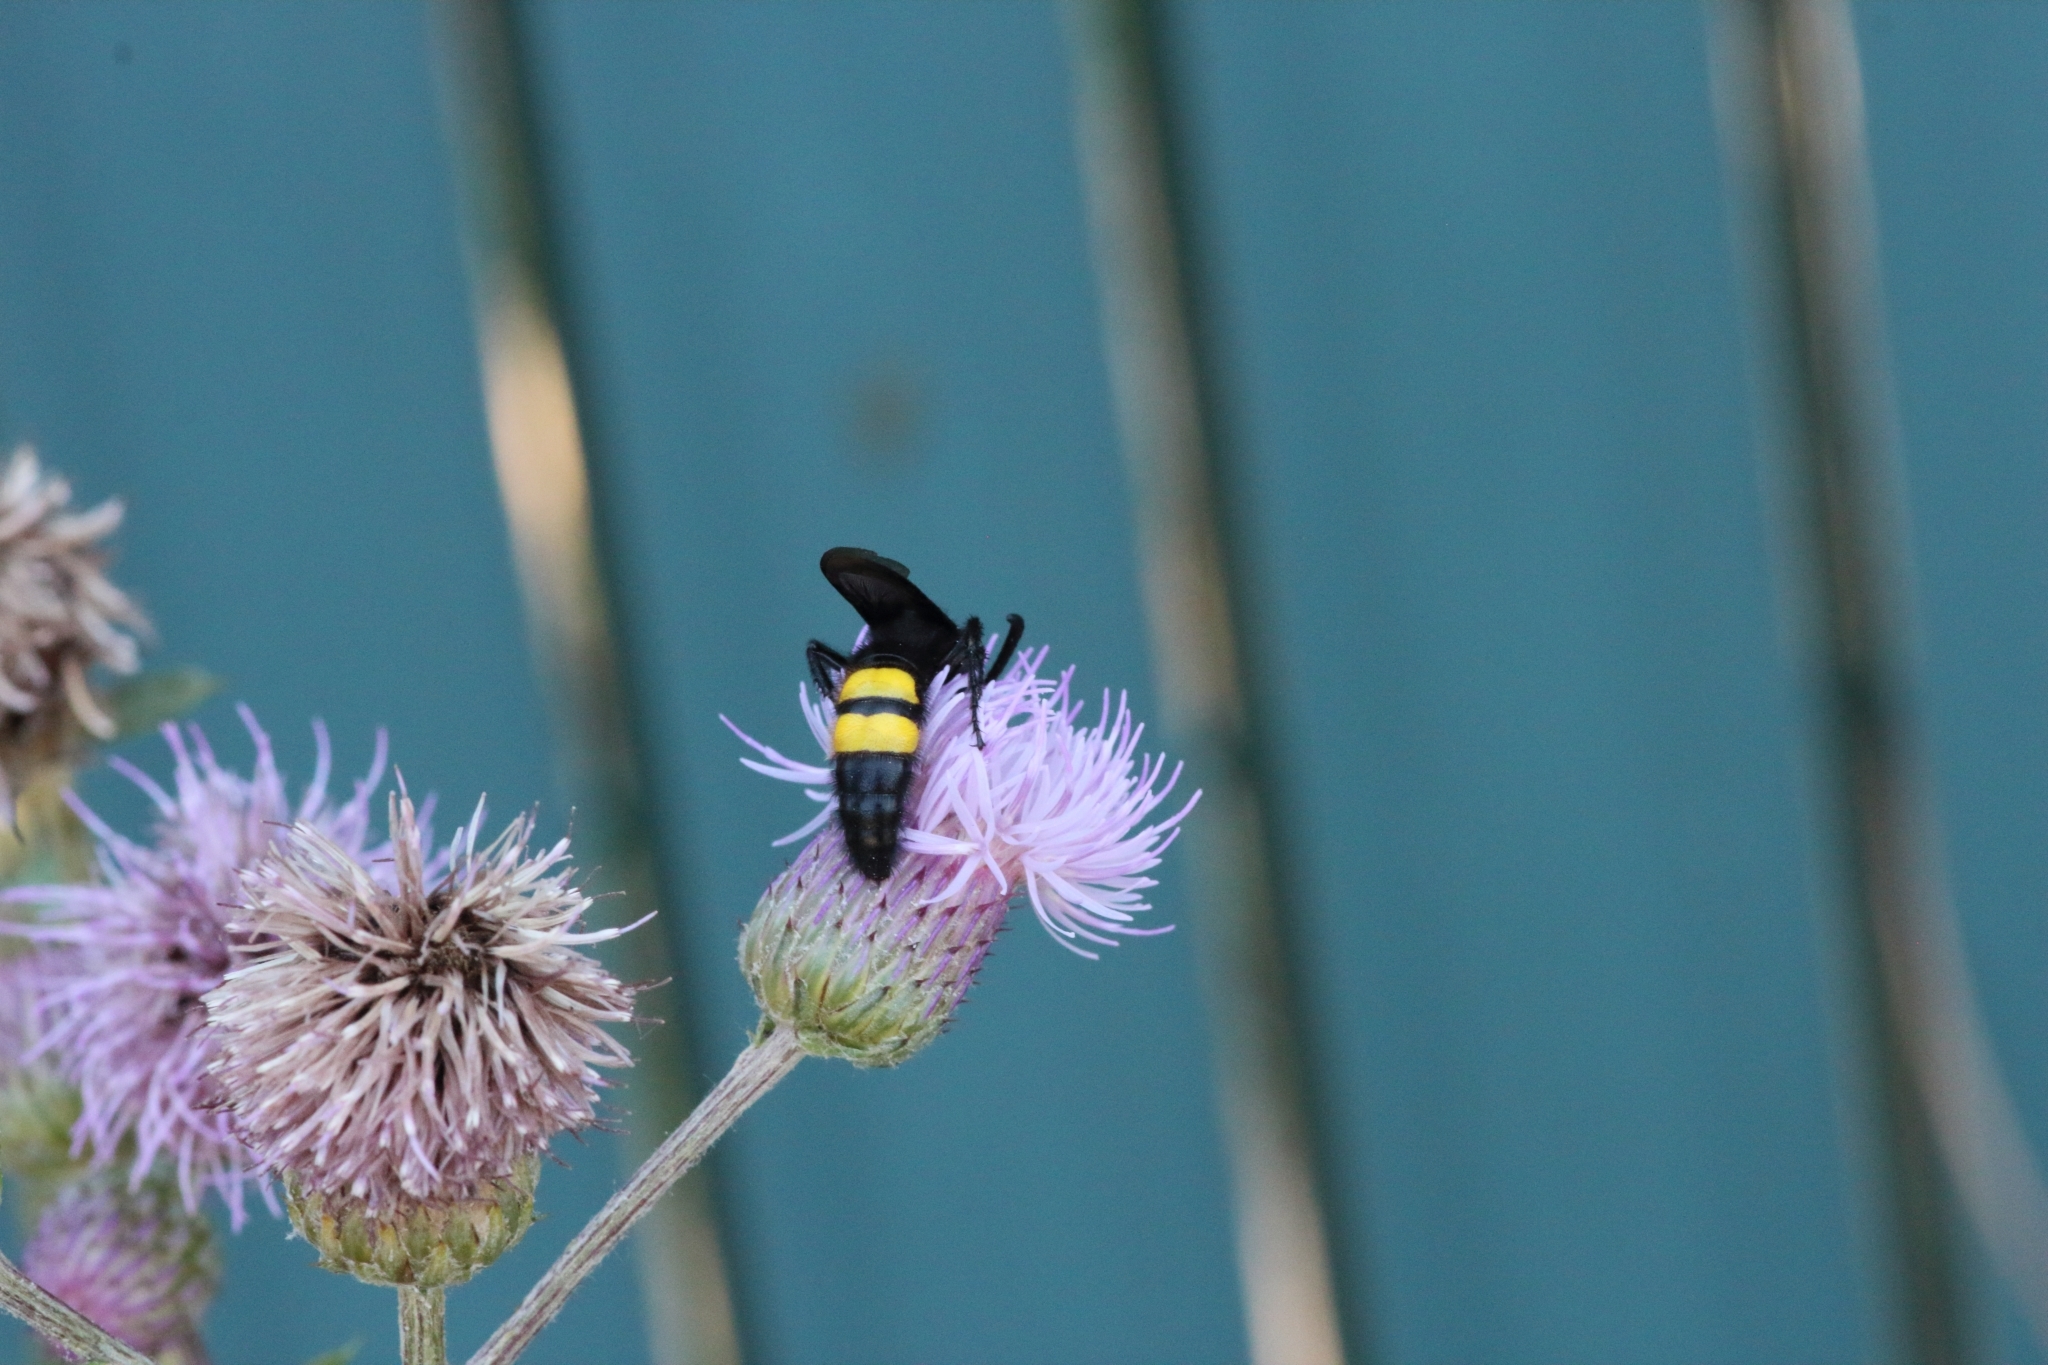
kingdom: Animalia
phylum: Arthropoda
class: Insecta
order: Hymenoptera
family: Scoliidae
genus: Scolia
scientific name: Scolia hirta
